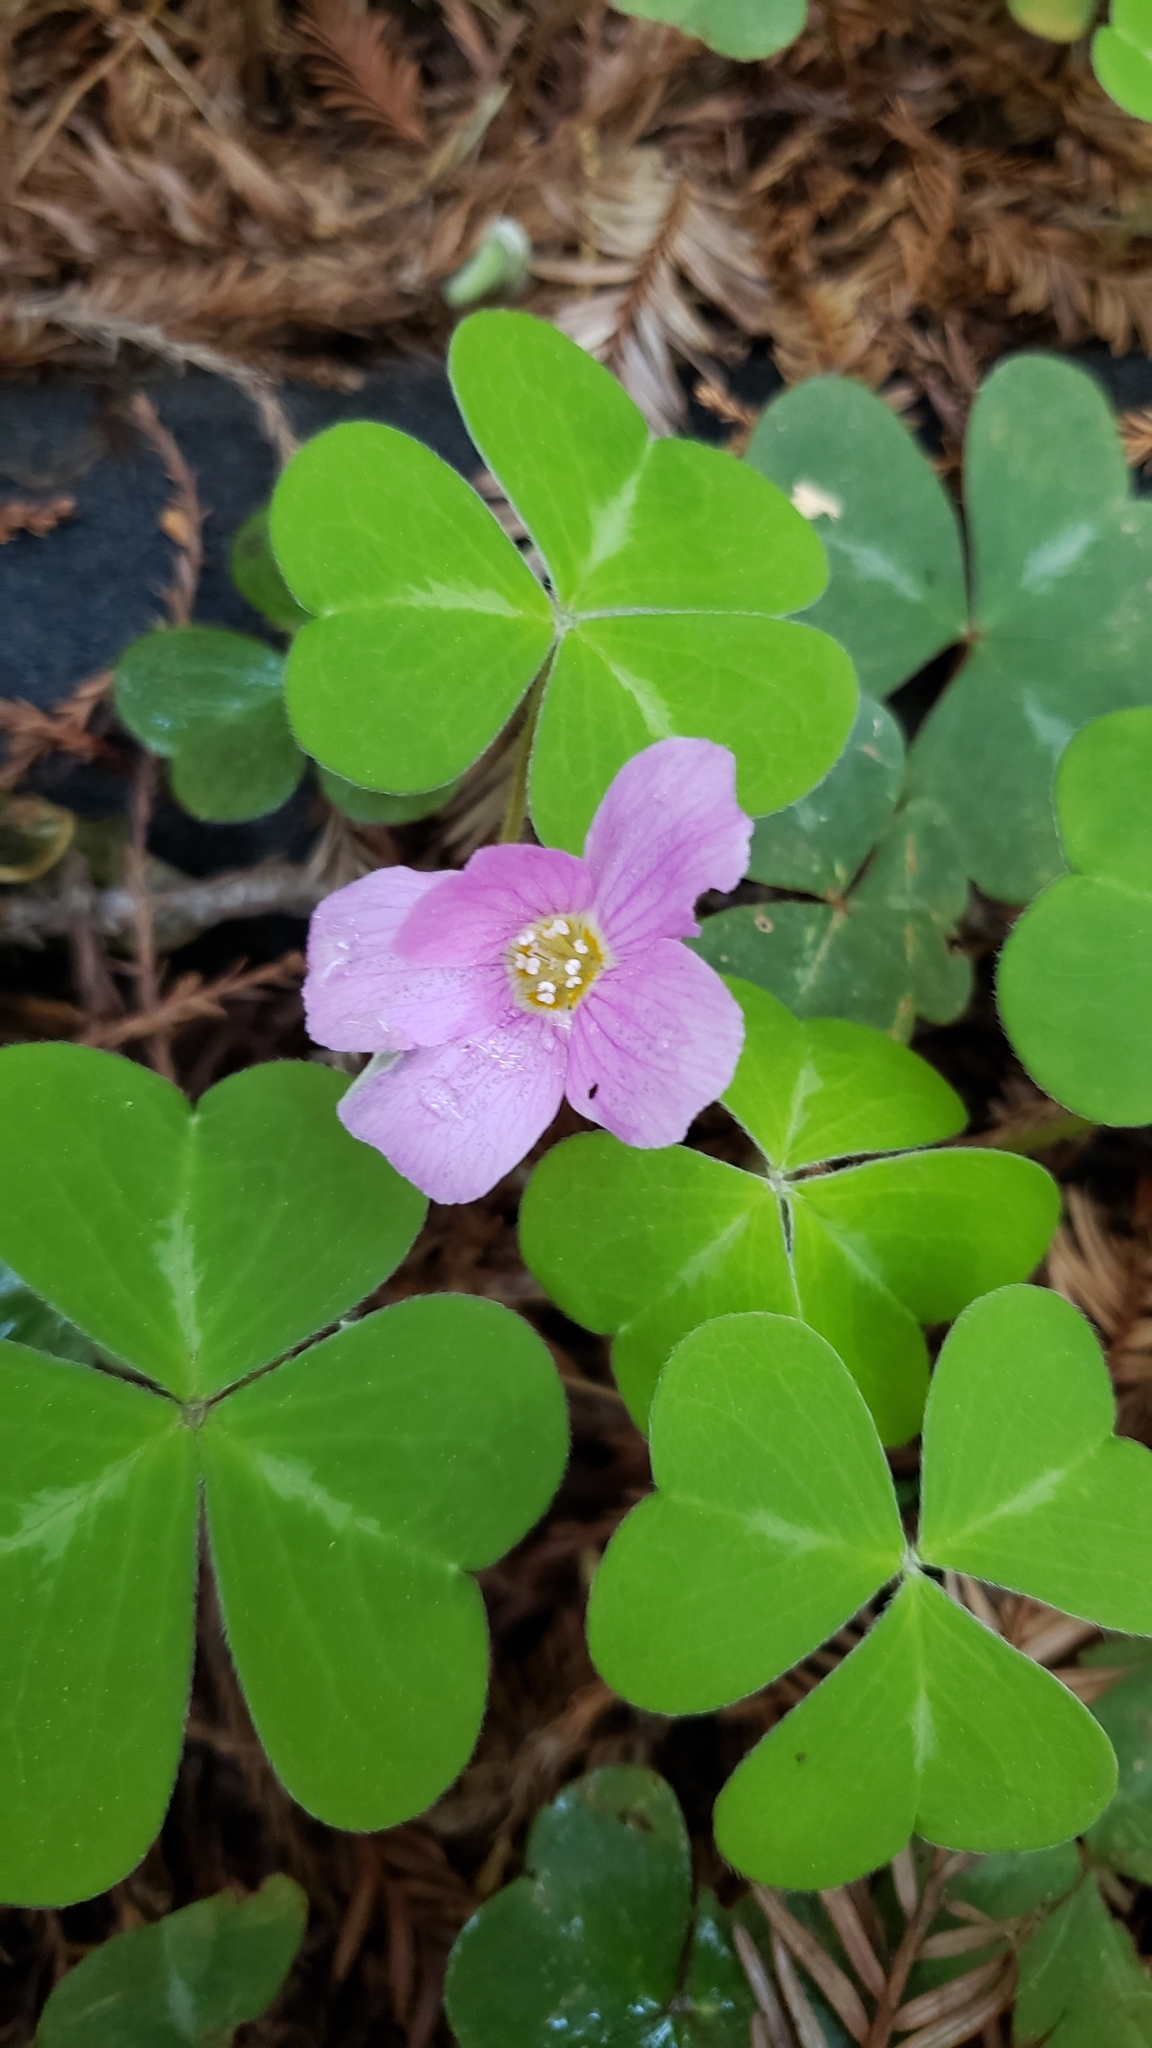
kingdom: Plantae
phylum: Tracheophyta
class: Magnoliopsida
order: Oxalidales
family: Oxalidaceae
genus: Oxalis
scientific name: Oxalis oregana
